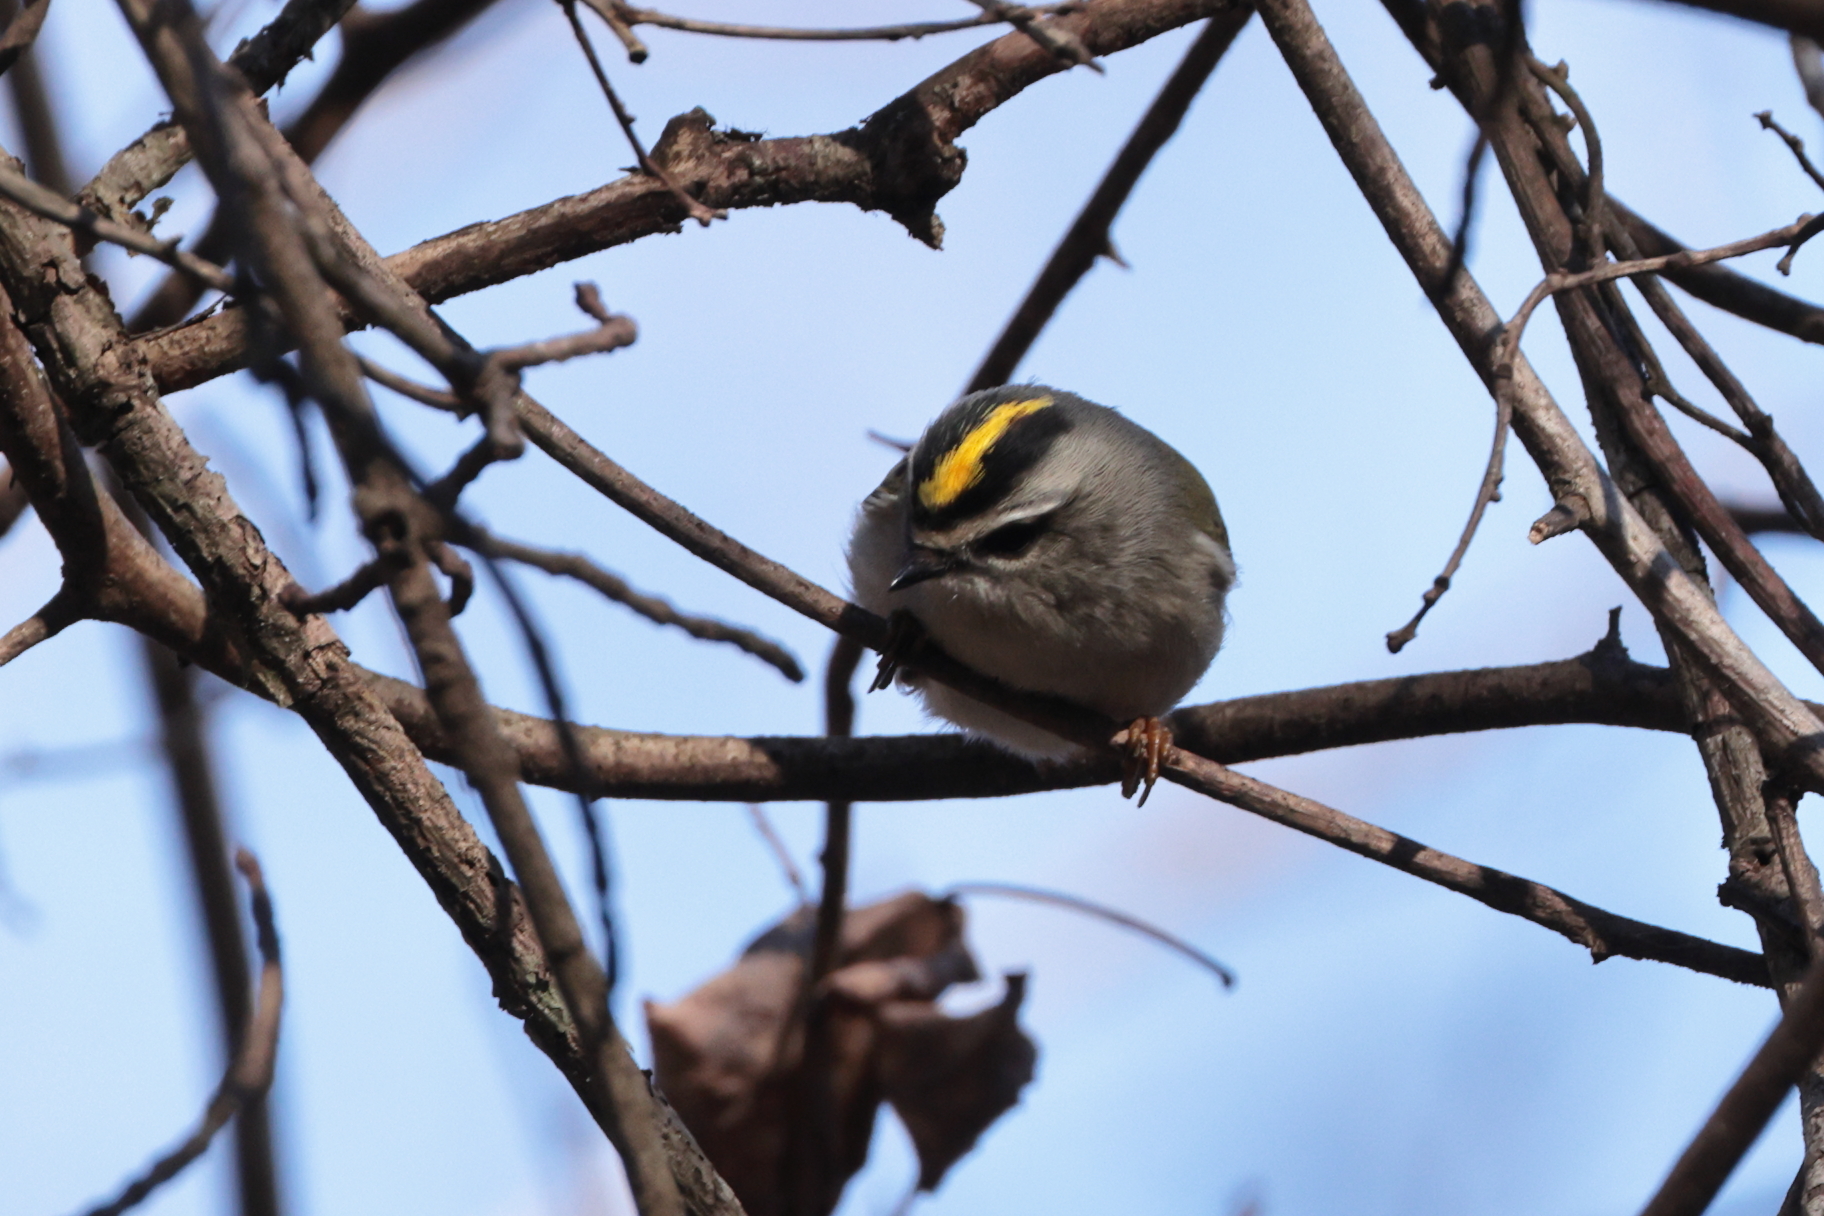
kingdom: Animalia
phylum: Chordata
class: Aves
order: Passeriformes
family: Regulidae
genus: Regulus
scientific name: Regulus satrapa
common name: Golden-crowned kinglet
